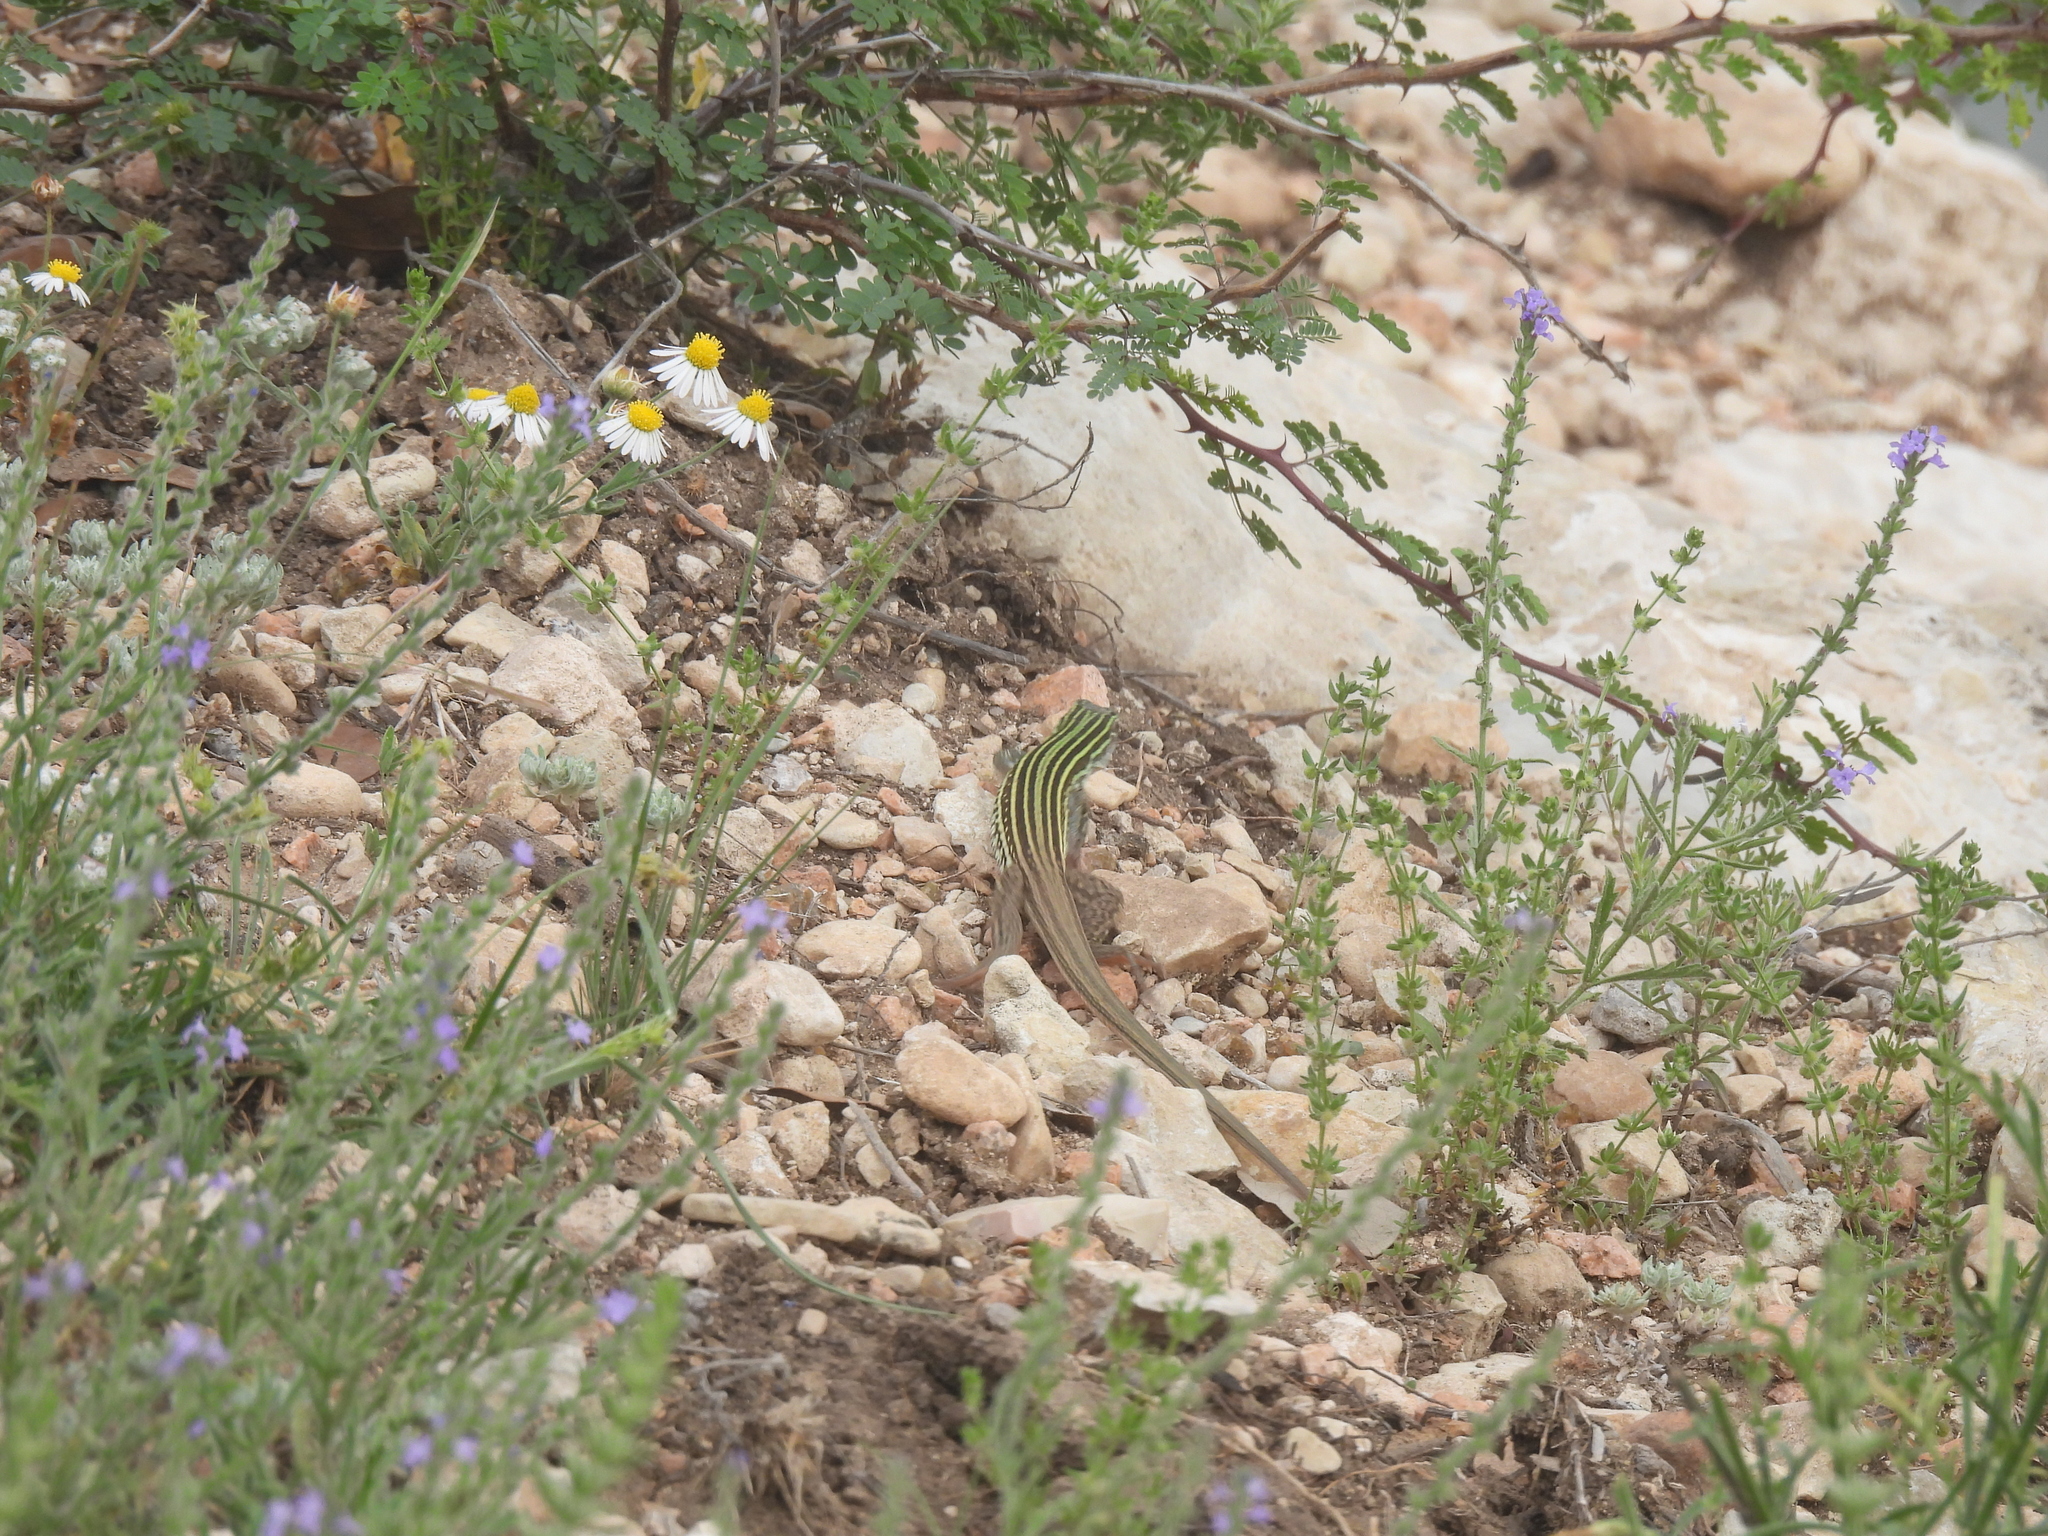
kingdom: Animalia
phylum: Chordata
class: Squamata
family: Teiidae
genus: Aspidoscelis
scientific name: Aspidoscelis gularis
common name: Eastern spotted whiptail
